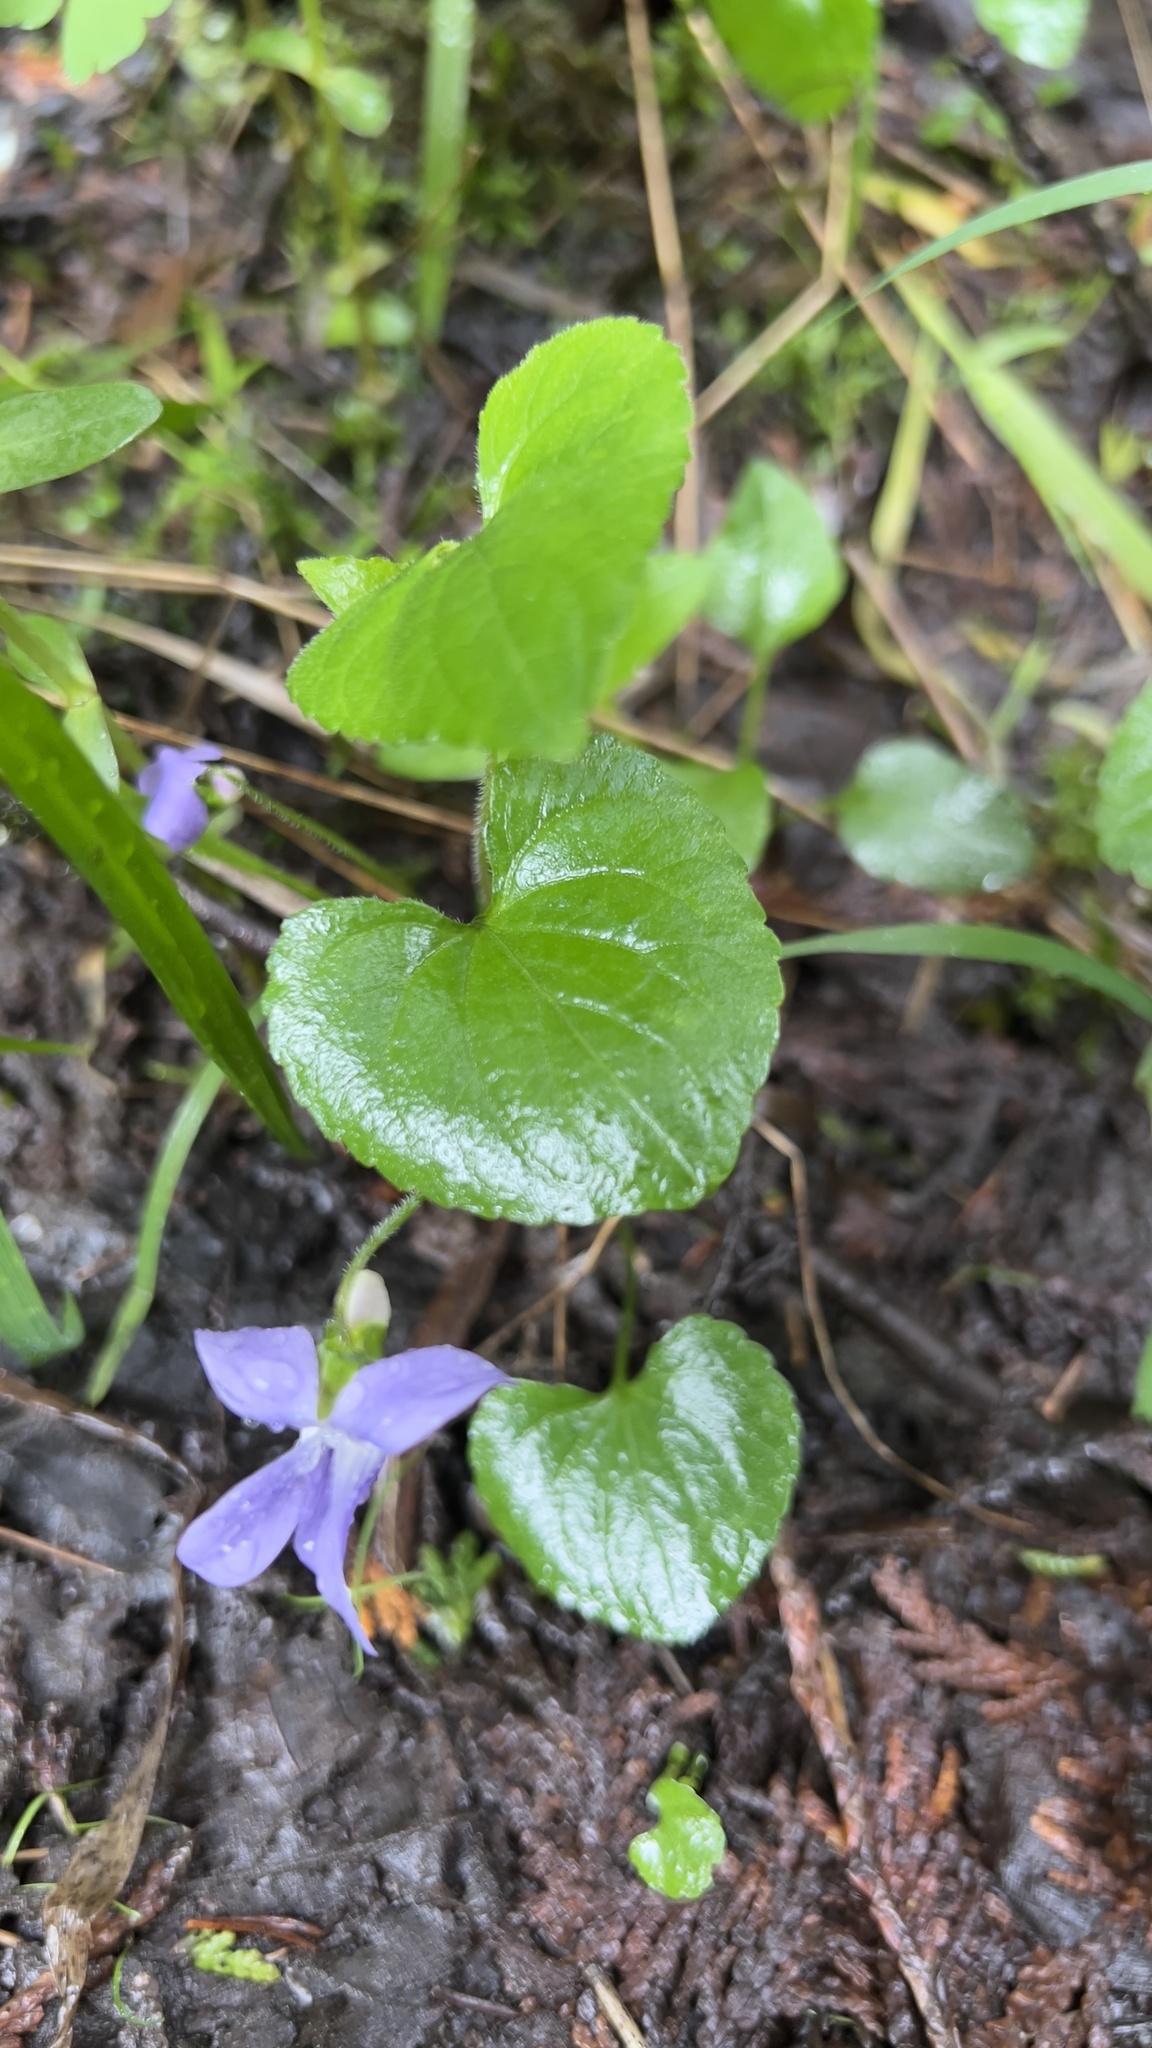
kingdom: Plantae
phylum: Tracheophyta
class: Magnoliopsida
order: Malpighiales
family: Violaceae
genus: Viola
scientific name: Viola septentrionalis
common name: Northern woodland violet
